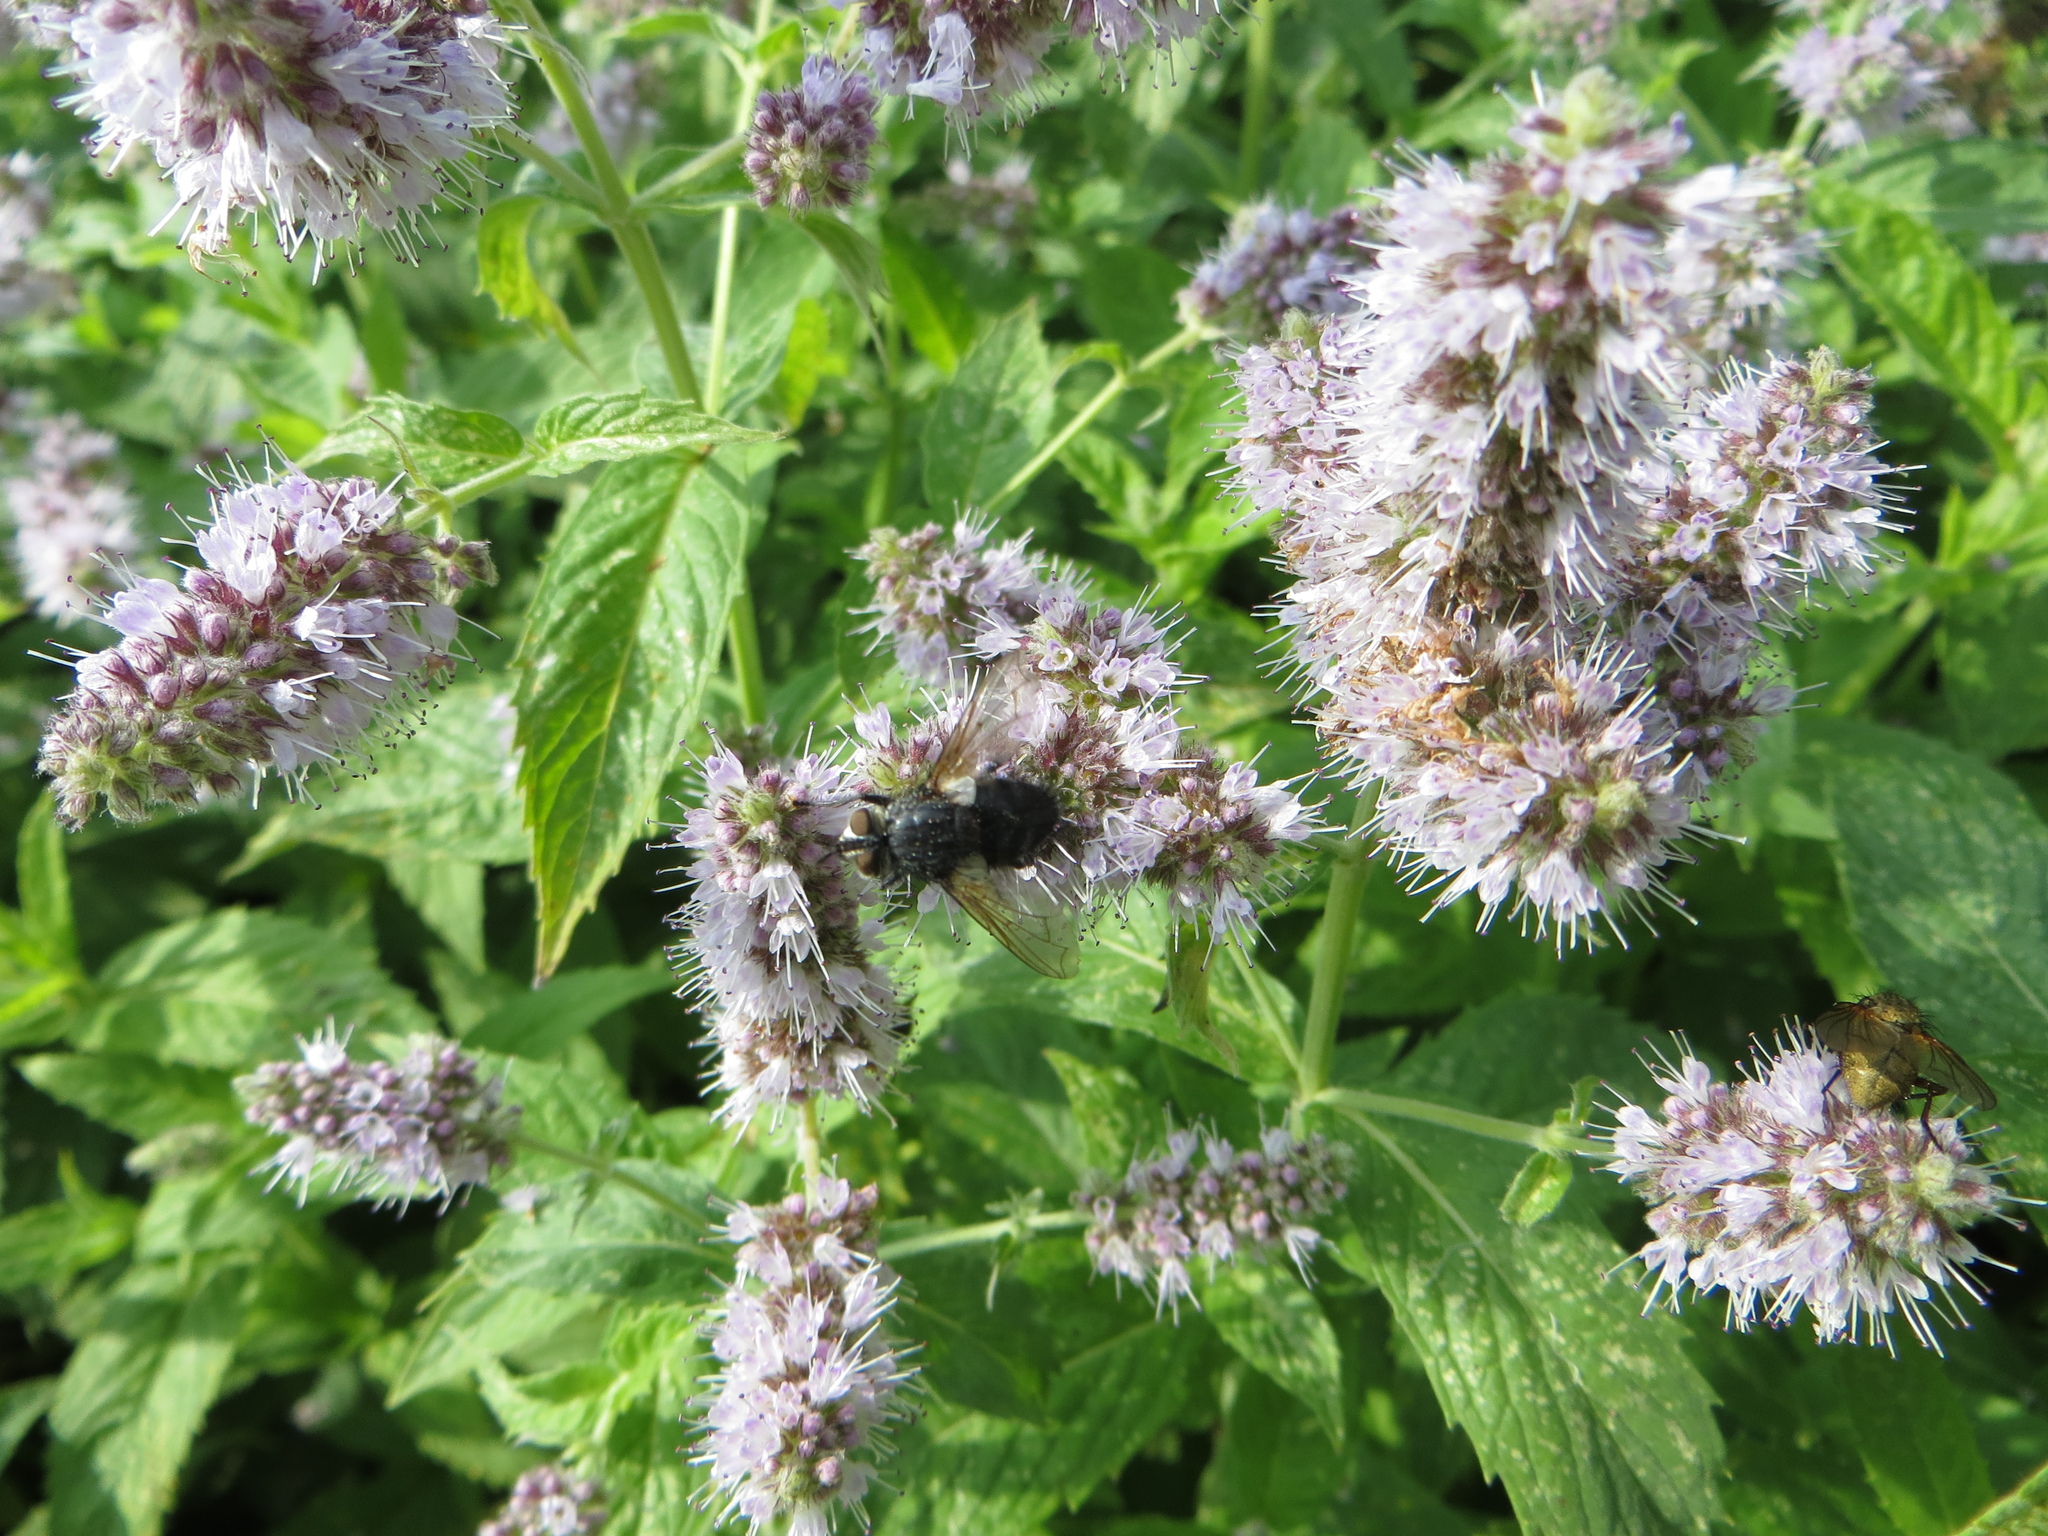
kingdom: Animalia
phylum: Arthropoda
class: Insecta
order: Diptera
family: Tachinidae
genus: Eurithia
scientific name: Eurithia anthophila
